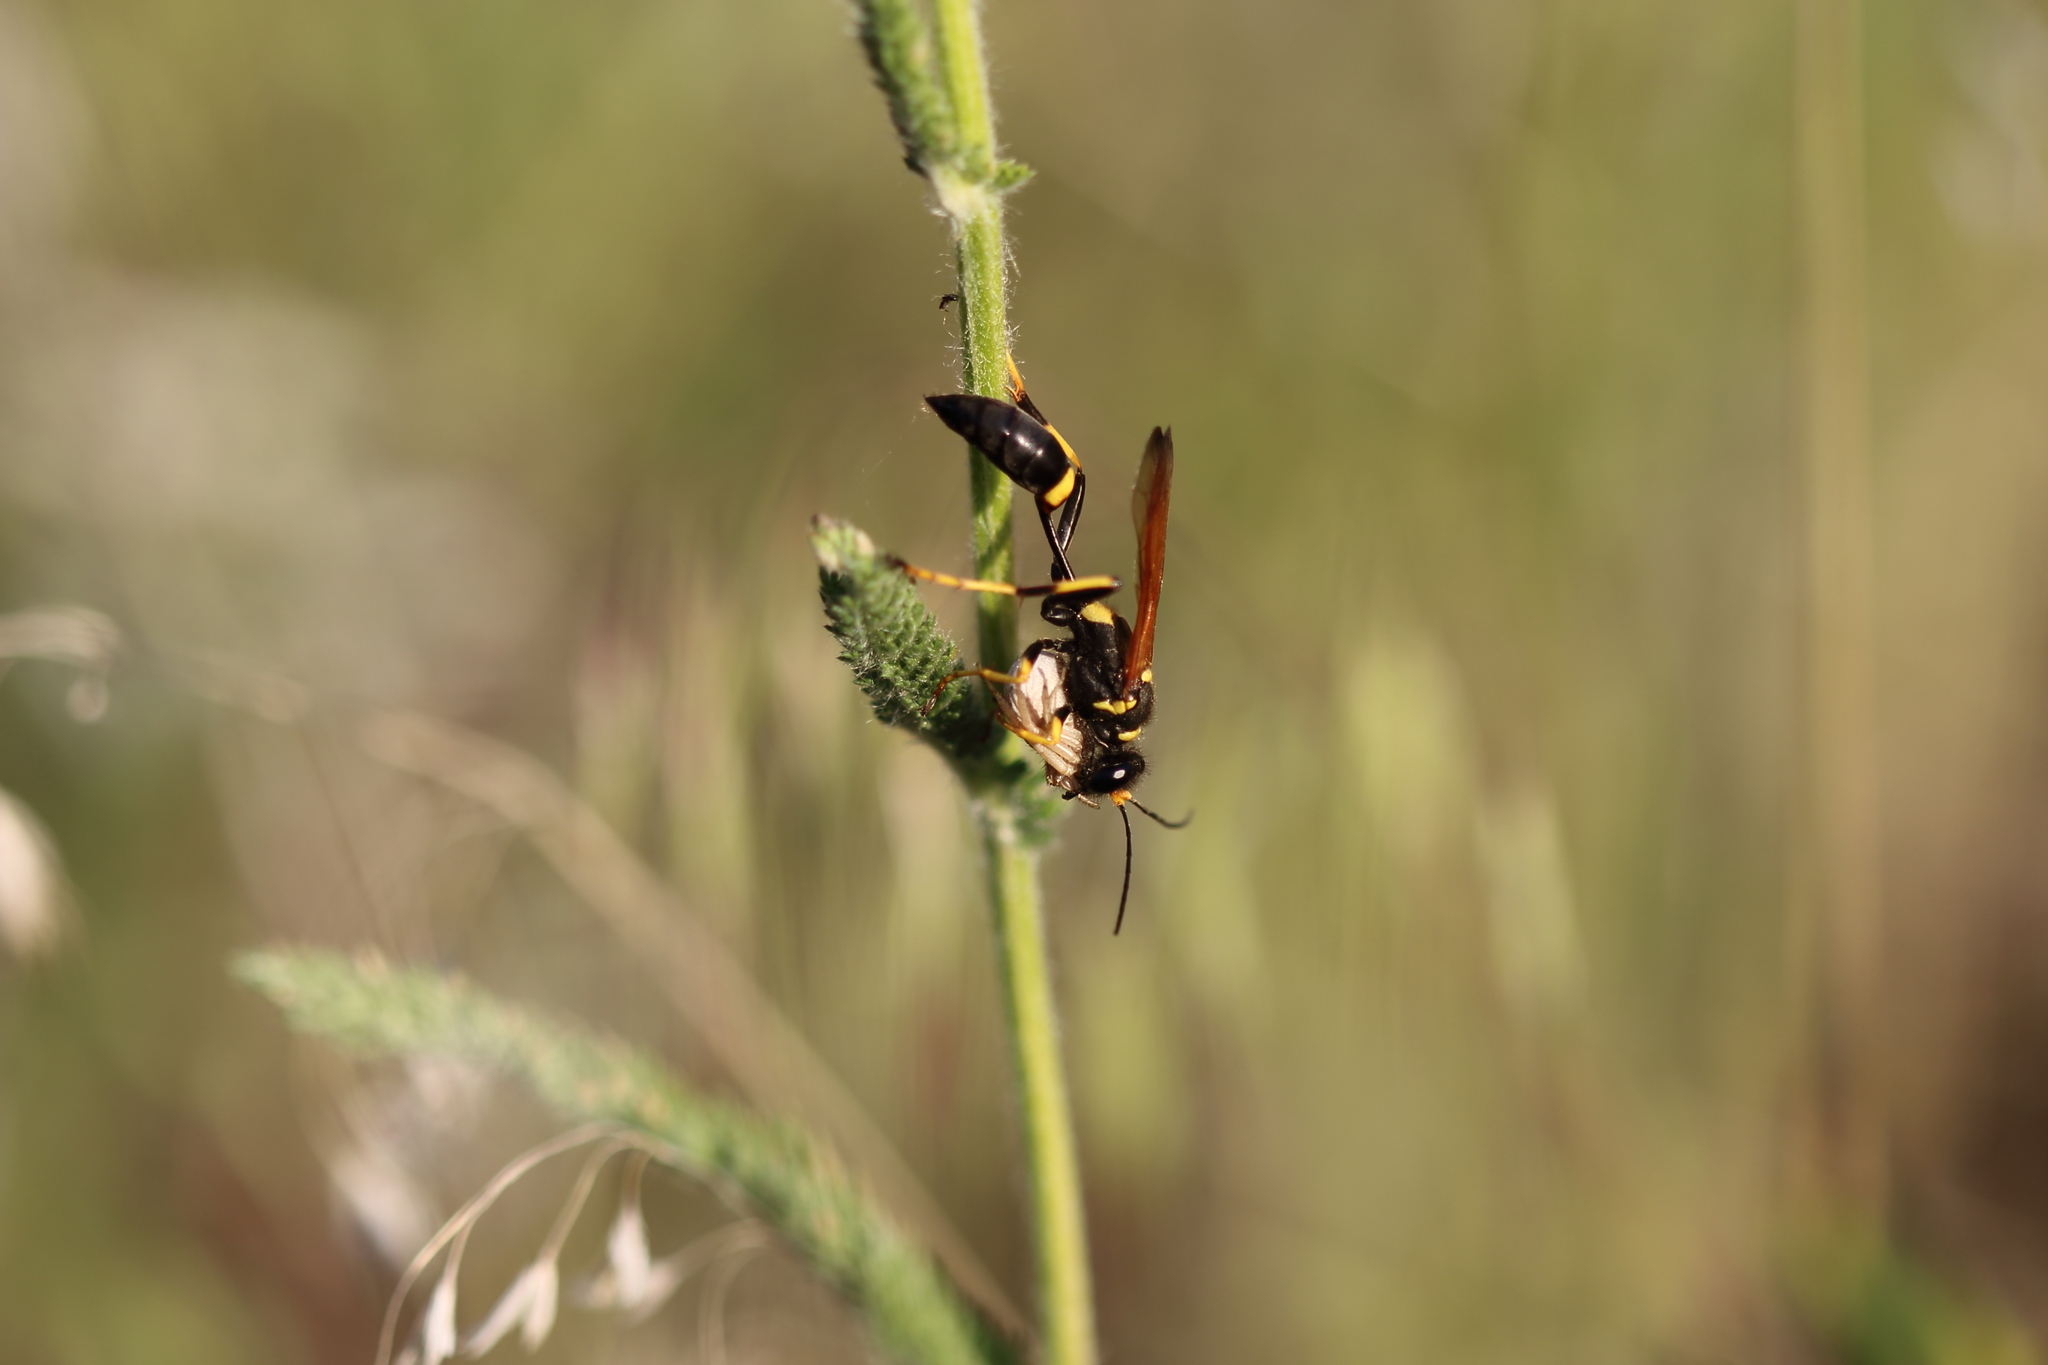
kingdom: Animalia
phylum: Arthropoda
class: Insecta
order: Hymenoptera
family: Sphecidae
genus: Sceliphron
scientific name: Sceliphron caementarium
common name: Mud dauber
